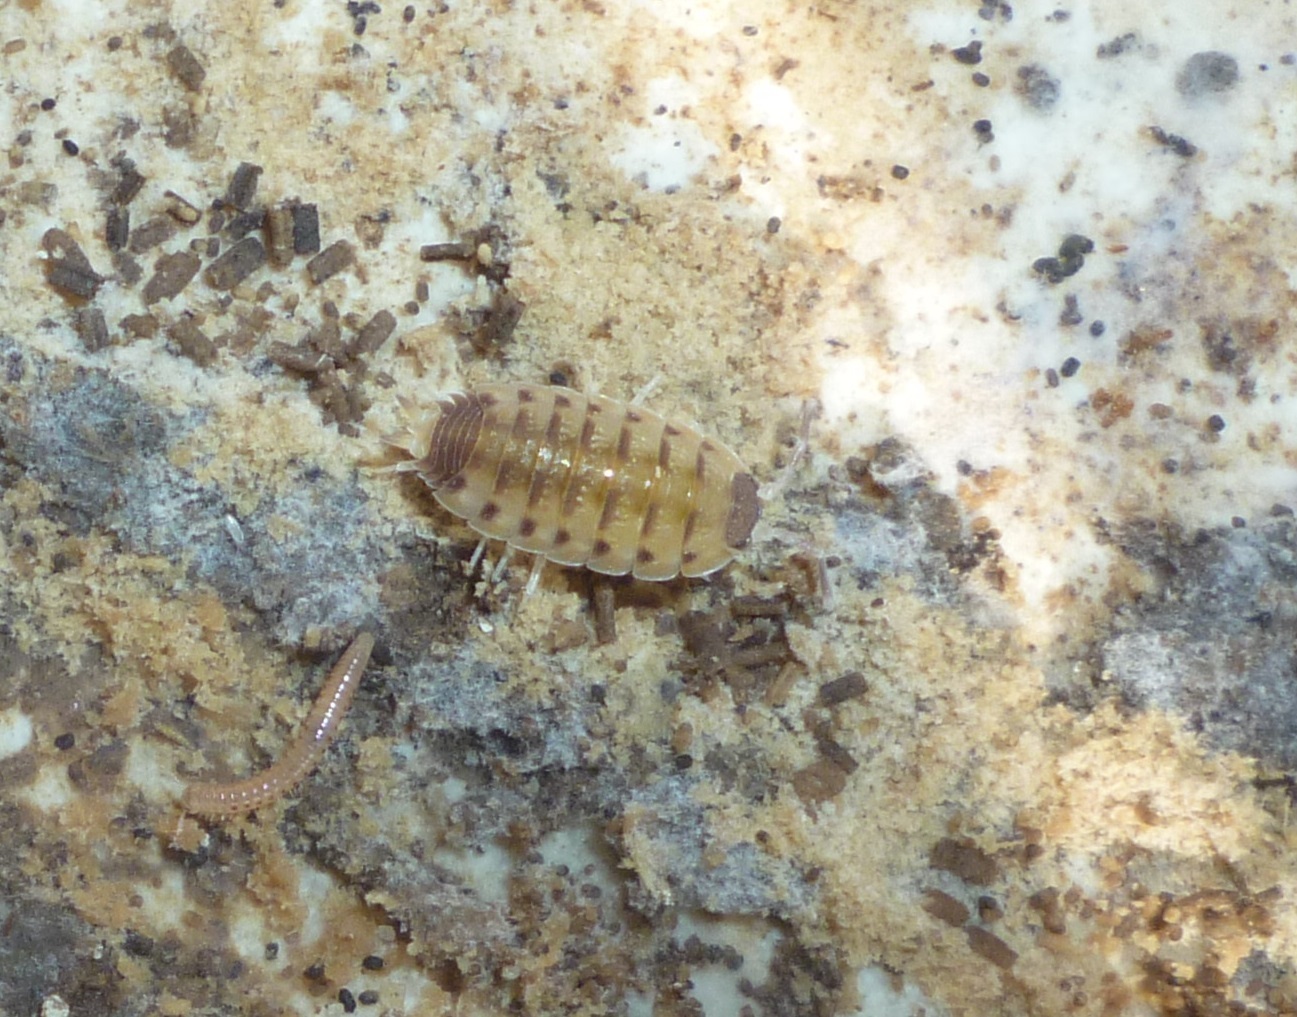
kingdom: Animalia
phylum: Arthropoda
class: Malacostraca
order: Isopoda
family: Porcellionidae
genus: Proporcellio
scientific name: Proporcellio vulcanius
